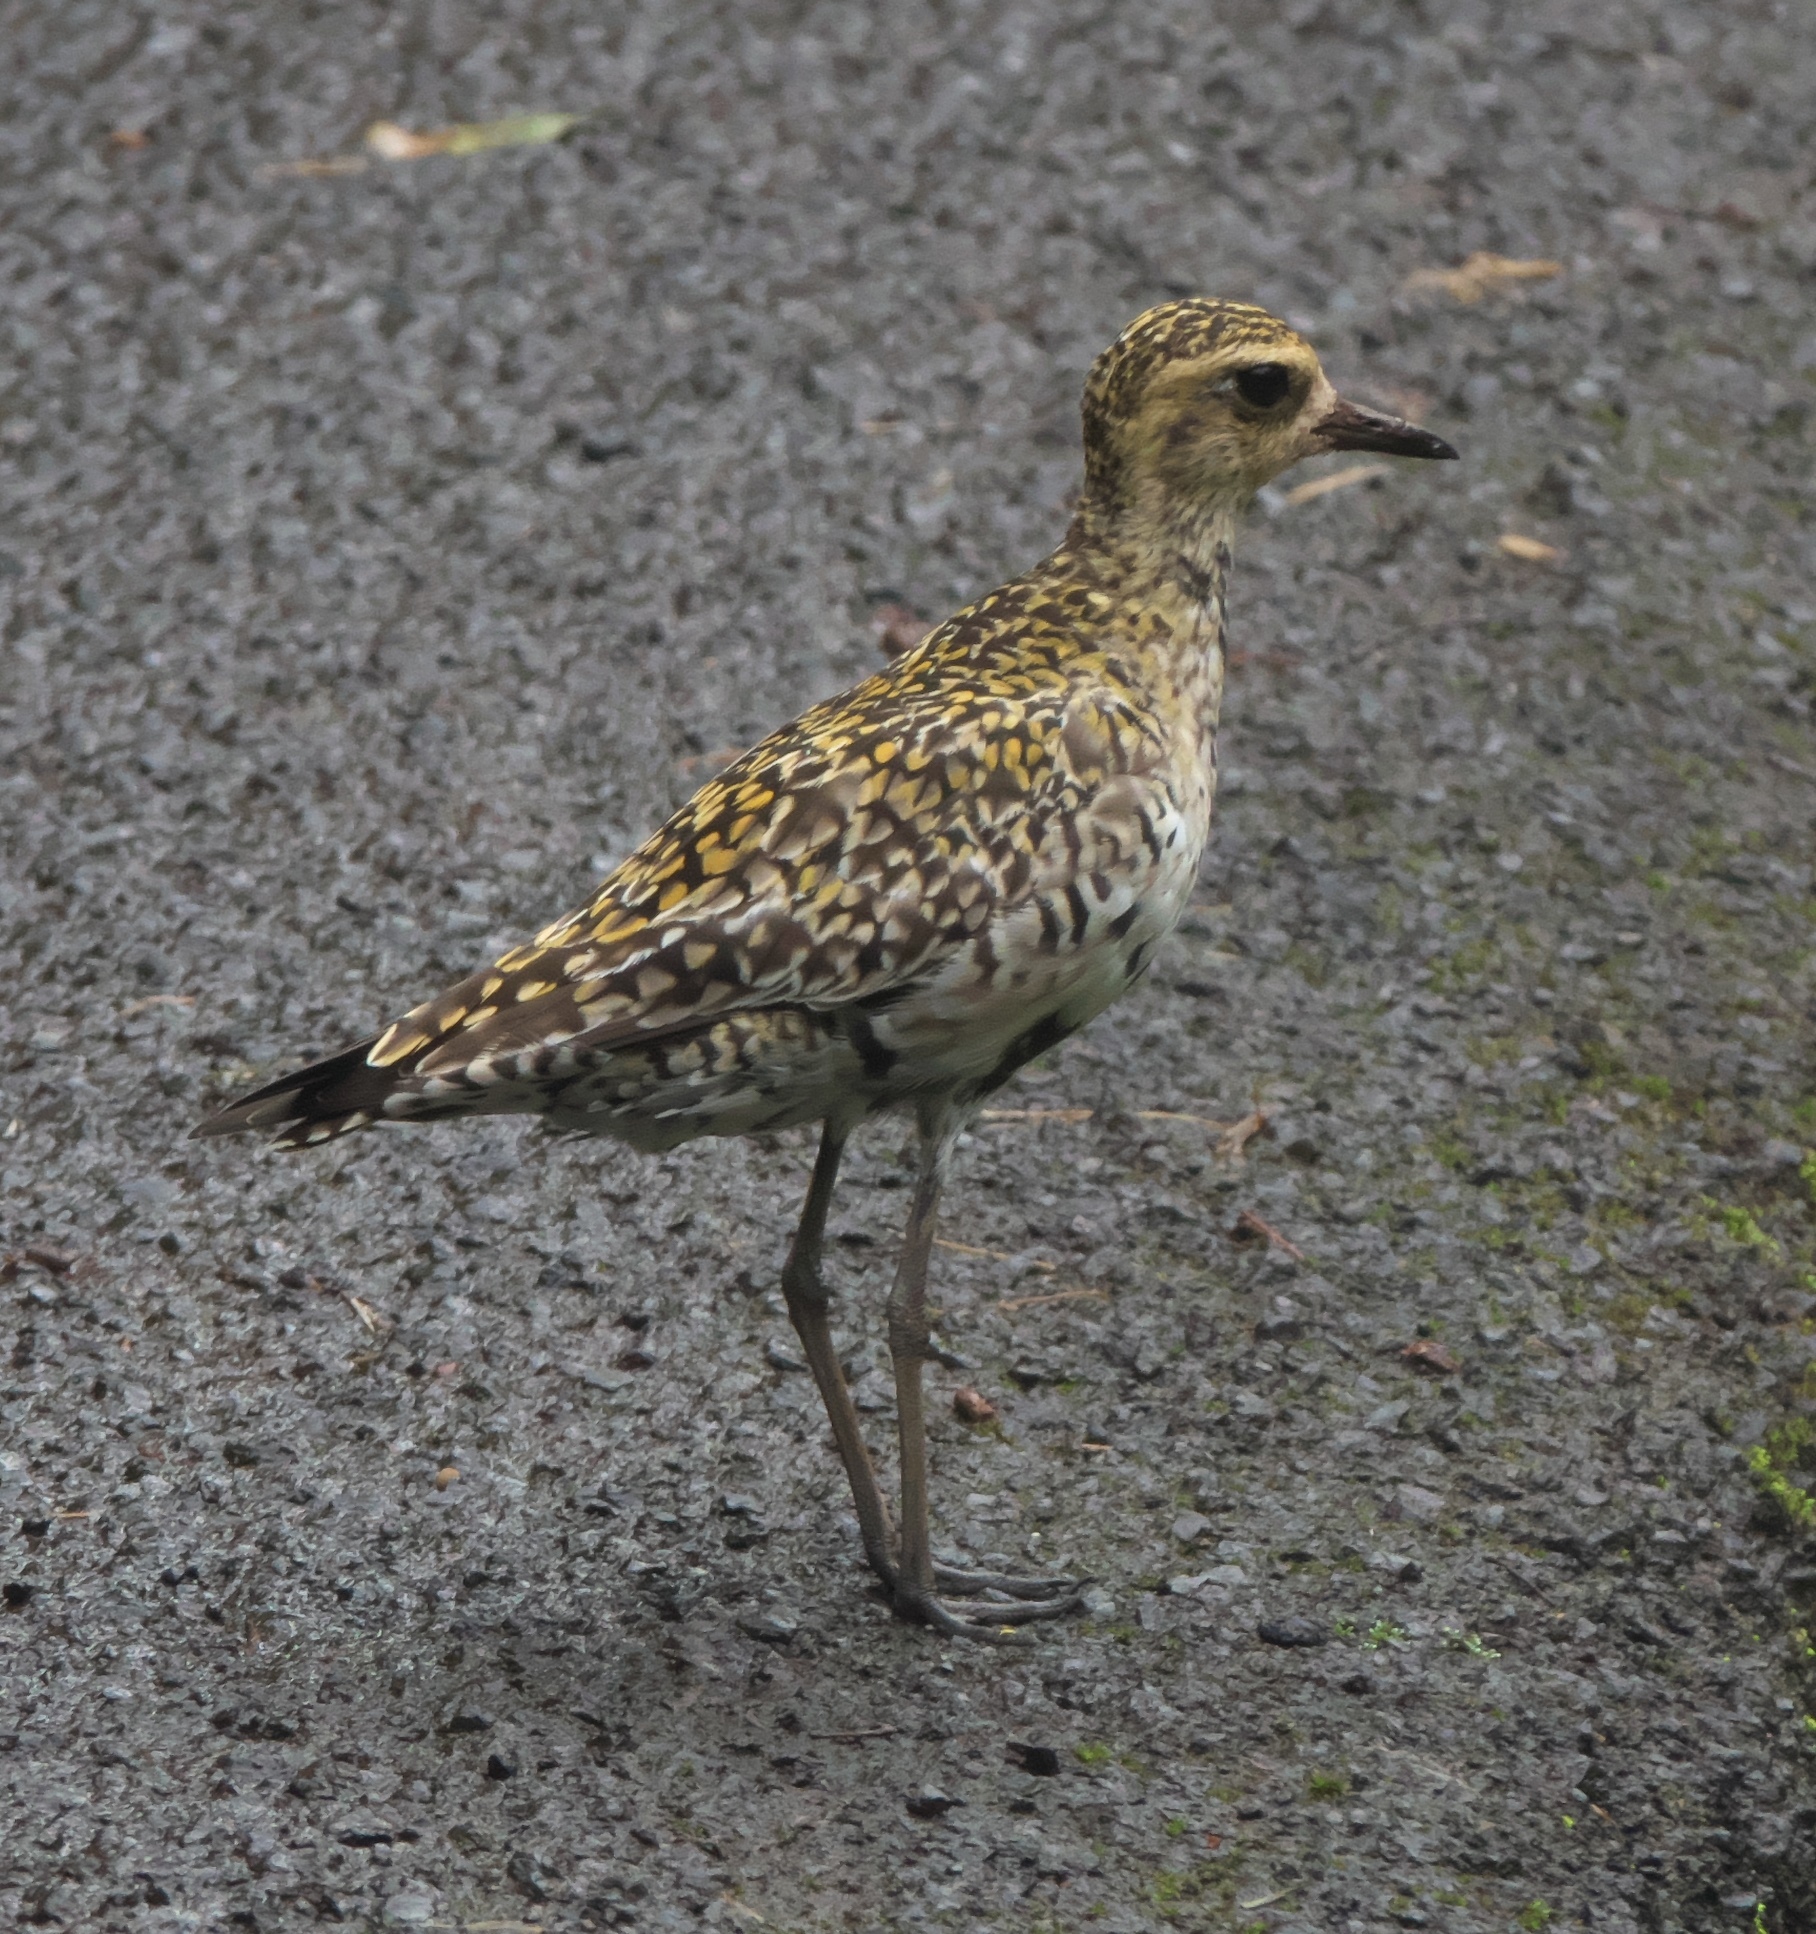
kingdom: Animalia
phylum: Chordata
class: Aves
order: Charadriiformes
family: Charadriidae
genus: Pluvialis
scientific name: Pluvialis fulva
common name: Pacific golden plover
